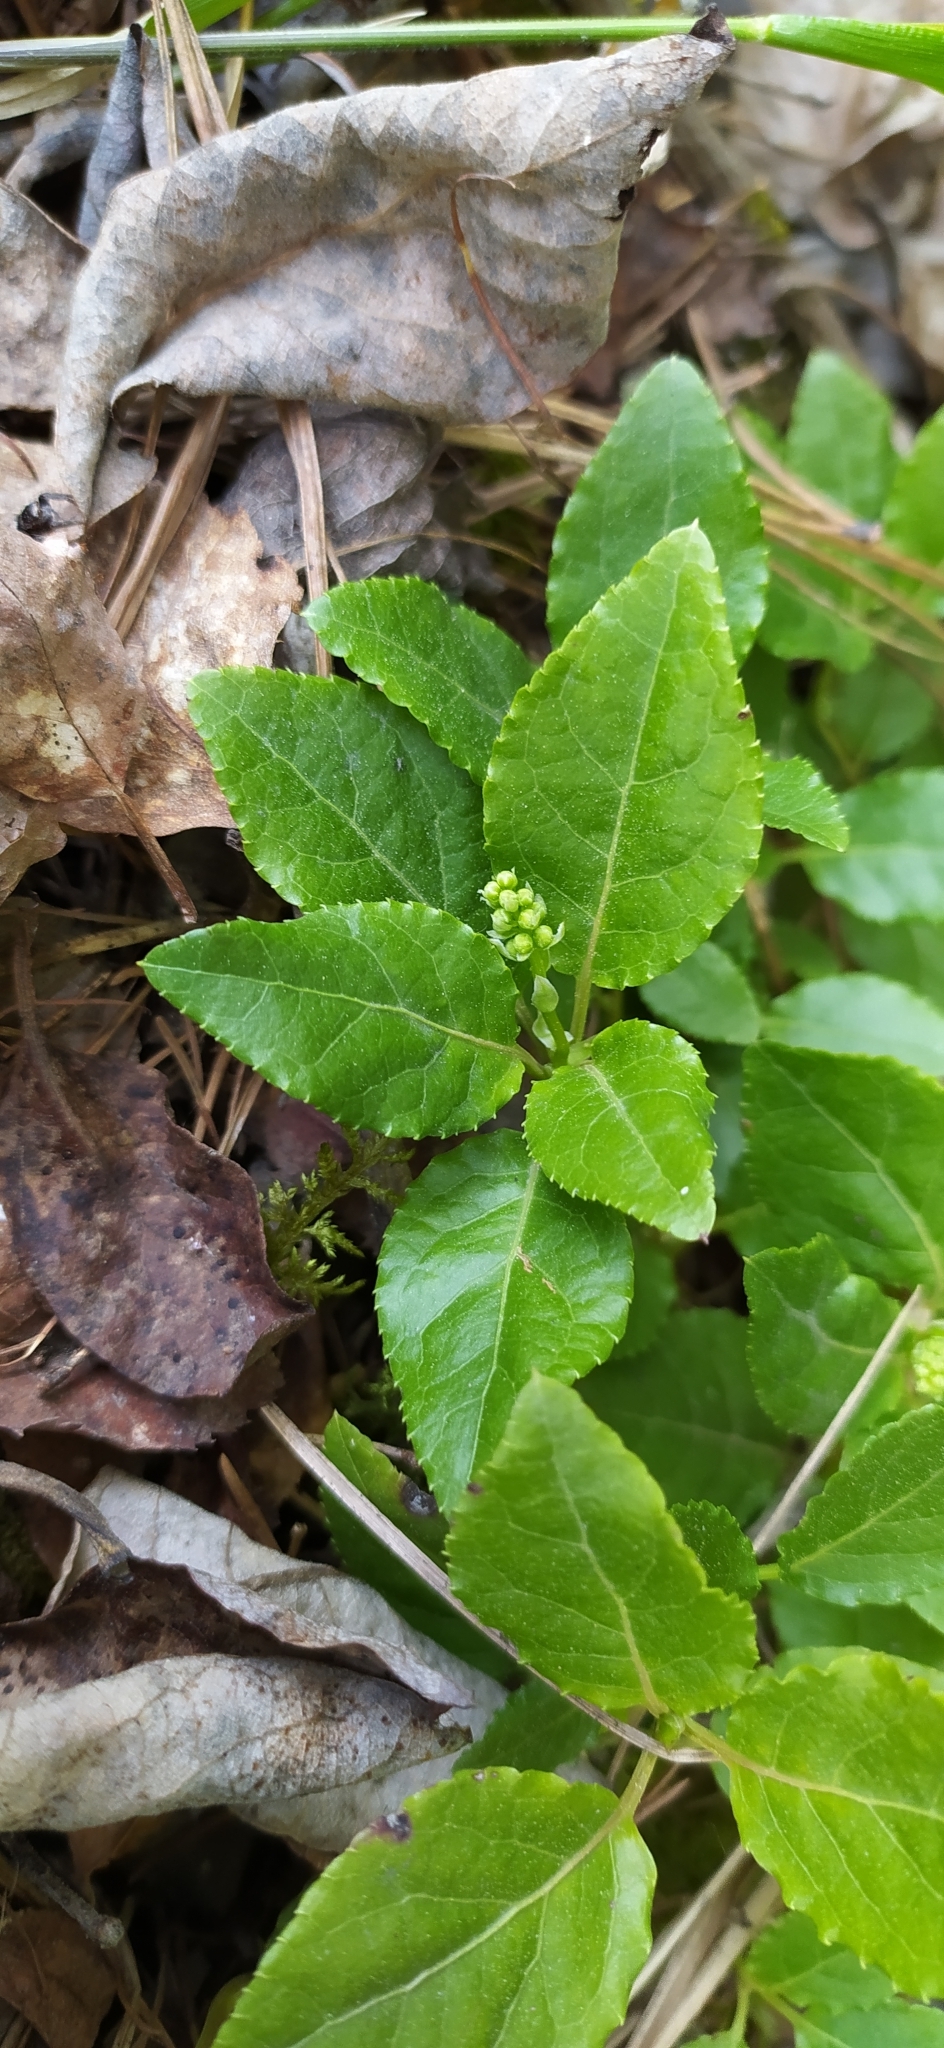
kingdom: Plantae
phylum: Tracheophyta
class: Magnoliopsida
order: Ericales
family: Ericaceae
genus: Orthilia
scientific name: Orthilia secunda
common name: One-sided orthilia
